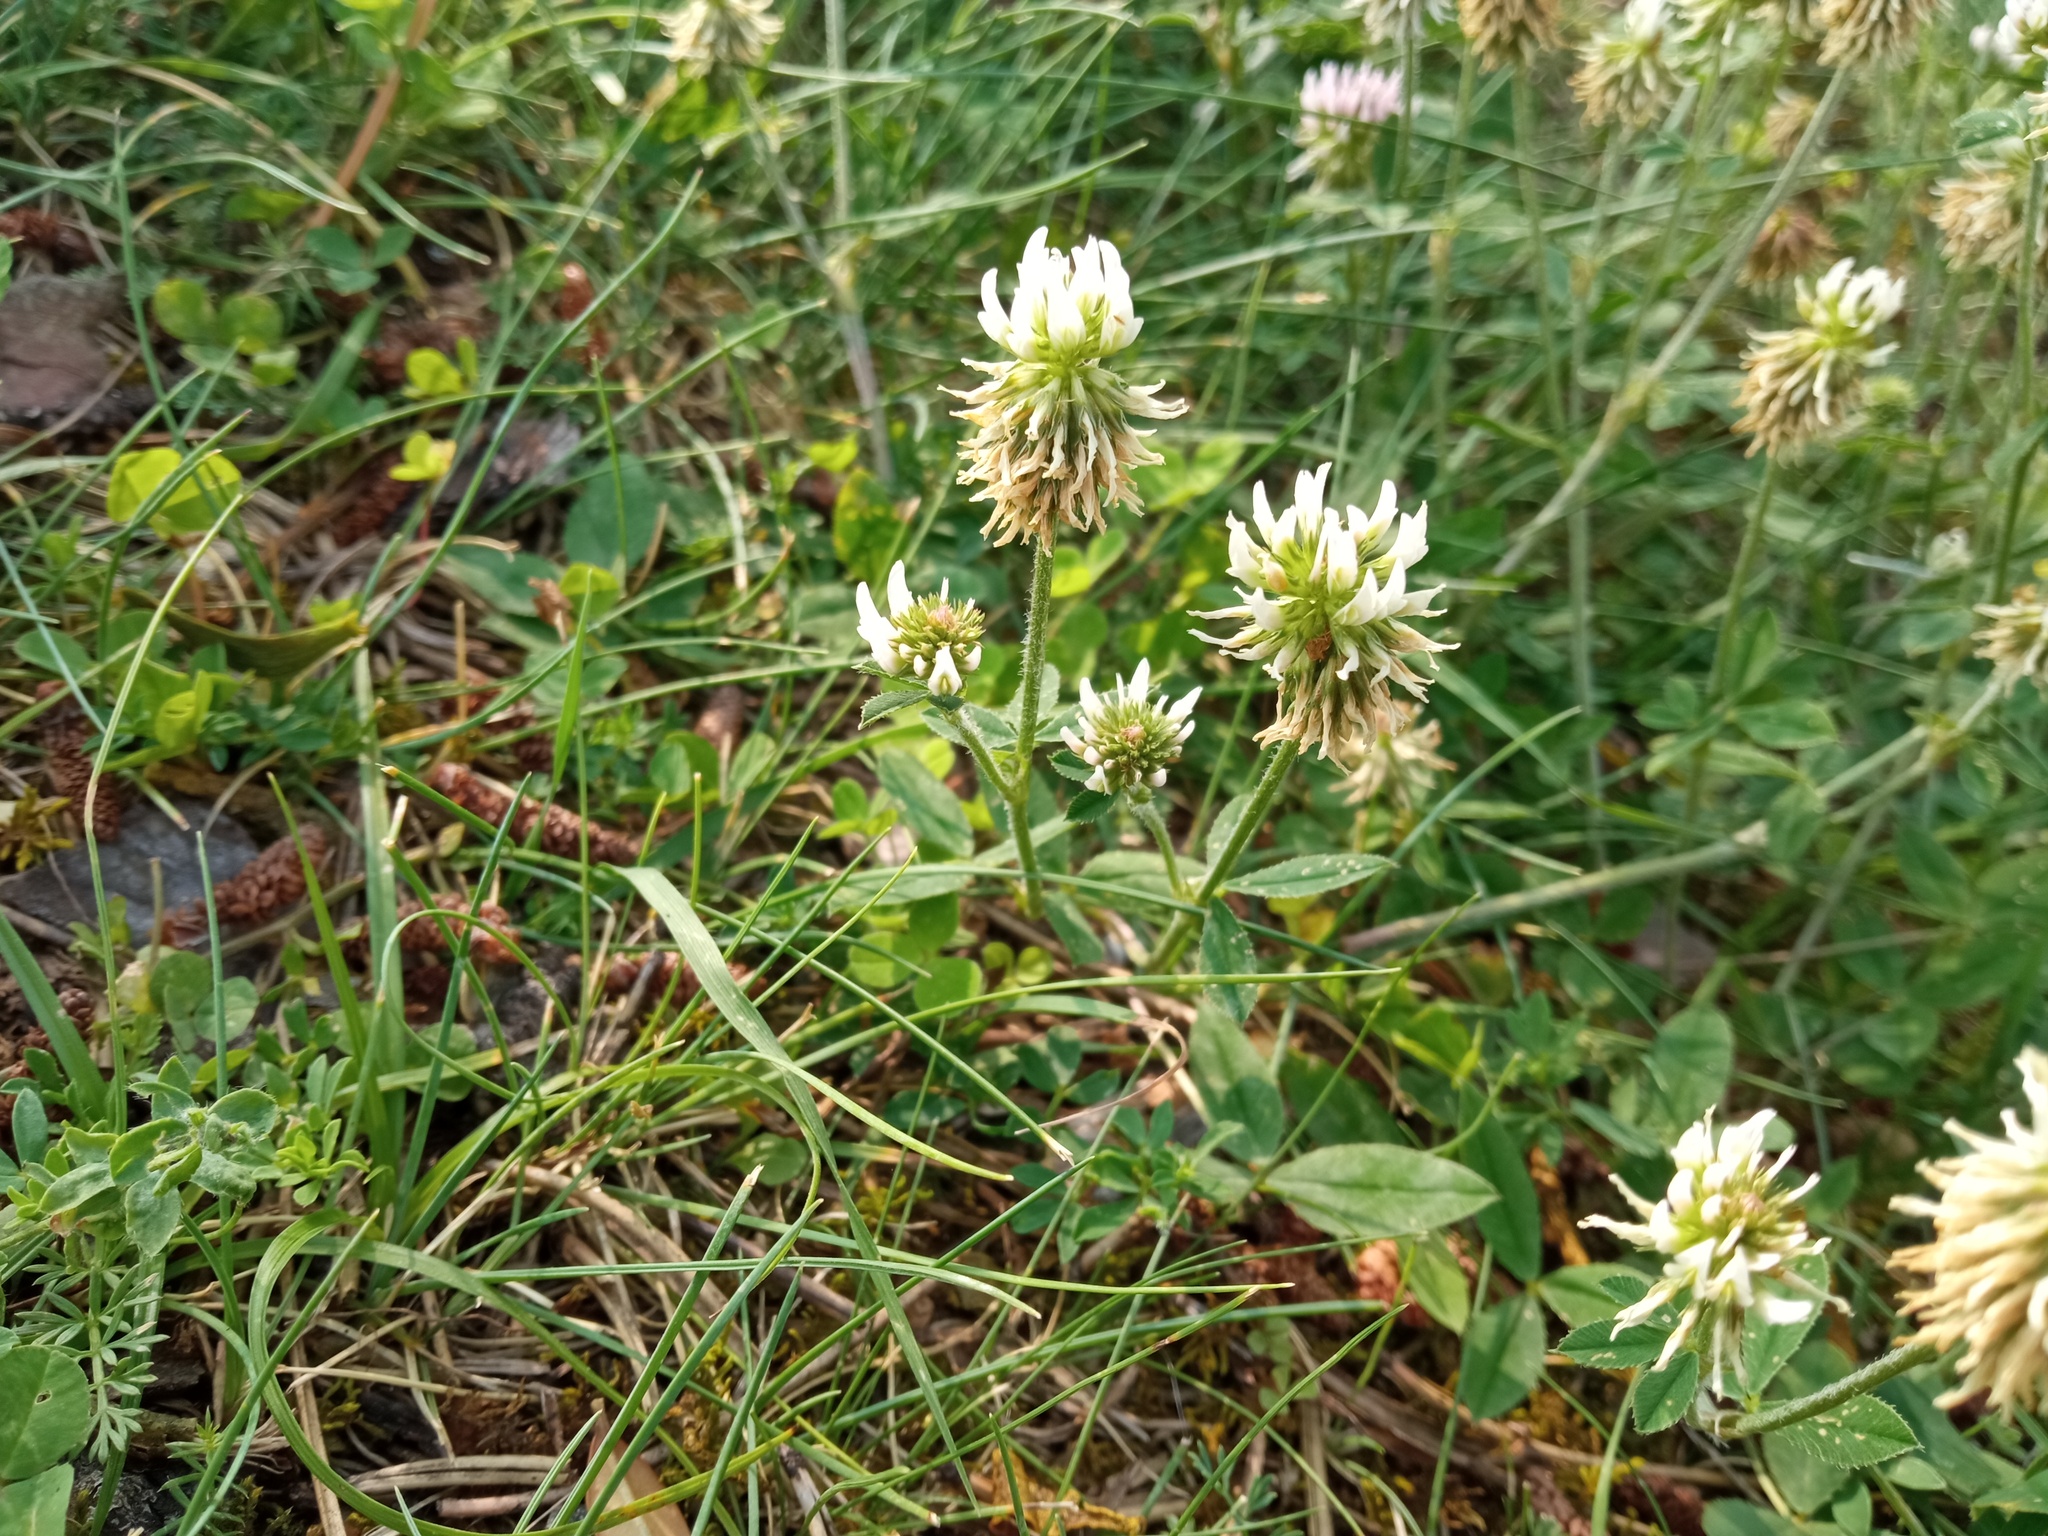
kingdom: Plantae
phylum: Tracheophyta
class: Magnoliopsida
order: Fabales
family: Fabaceae
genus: Trifolium
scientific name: Trifolium montanum
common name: Mountain clover
